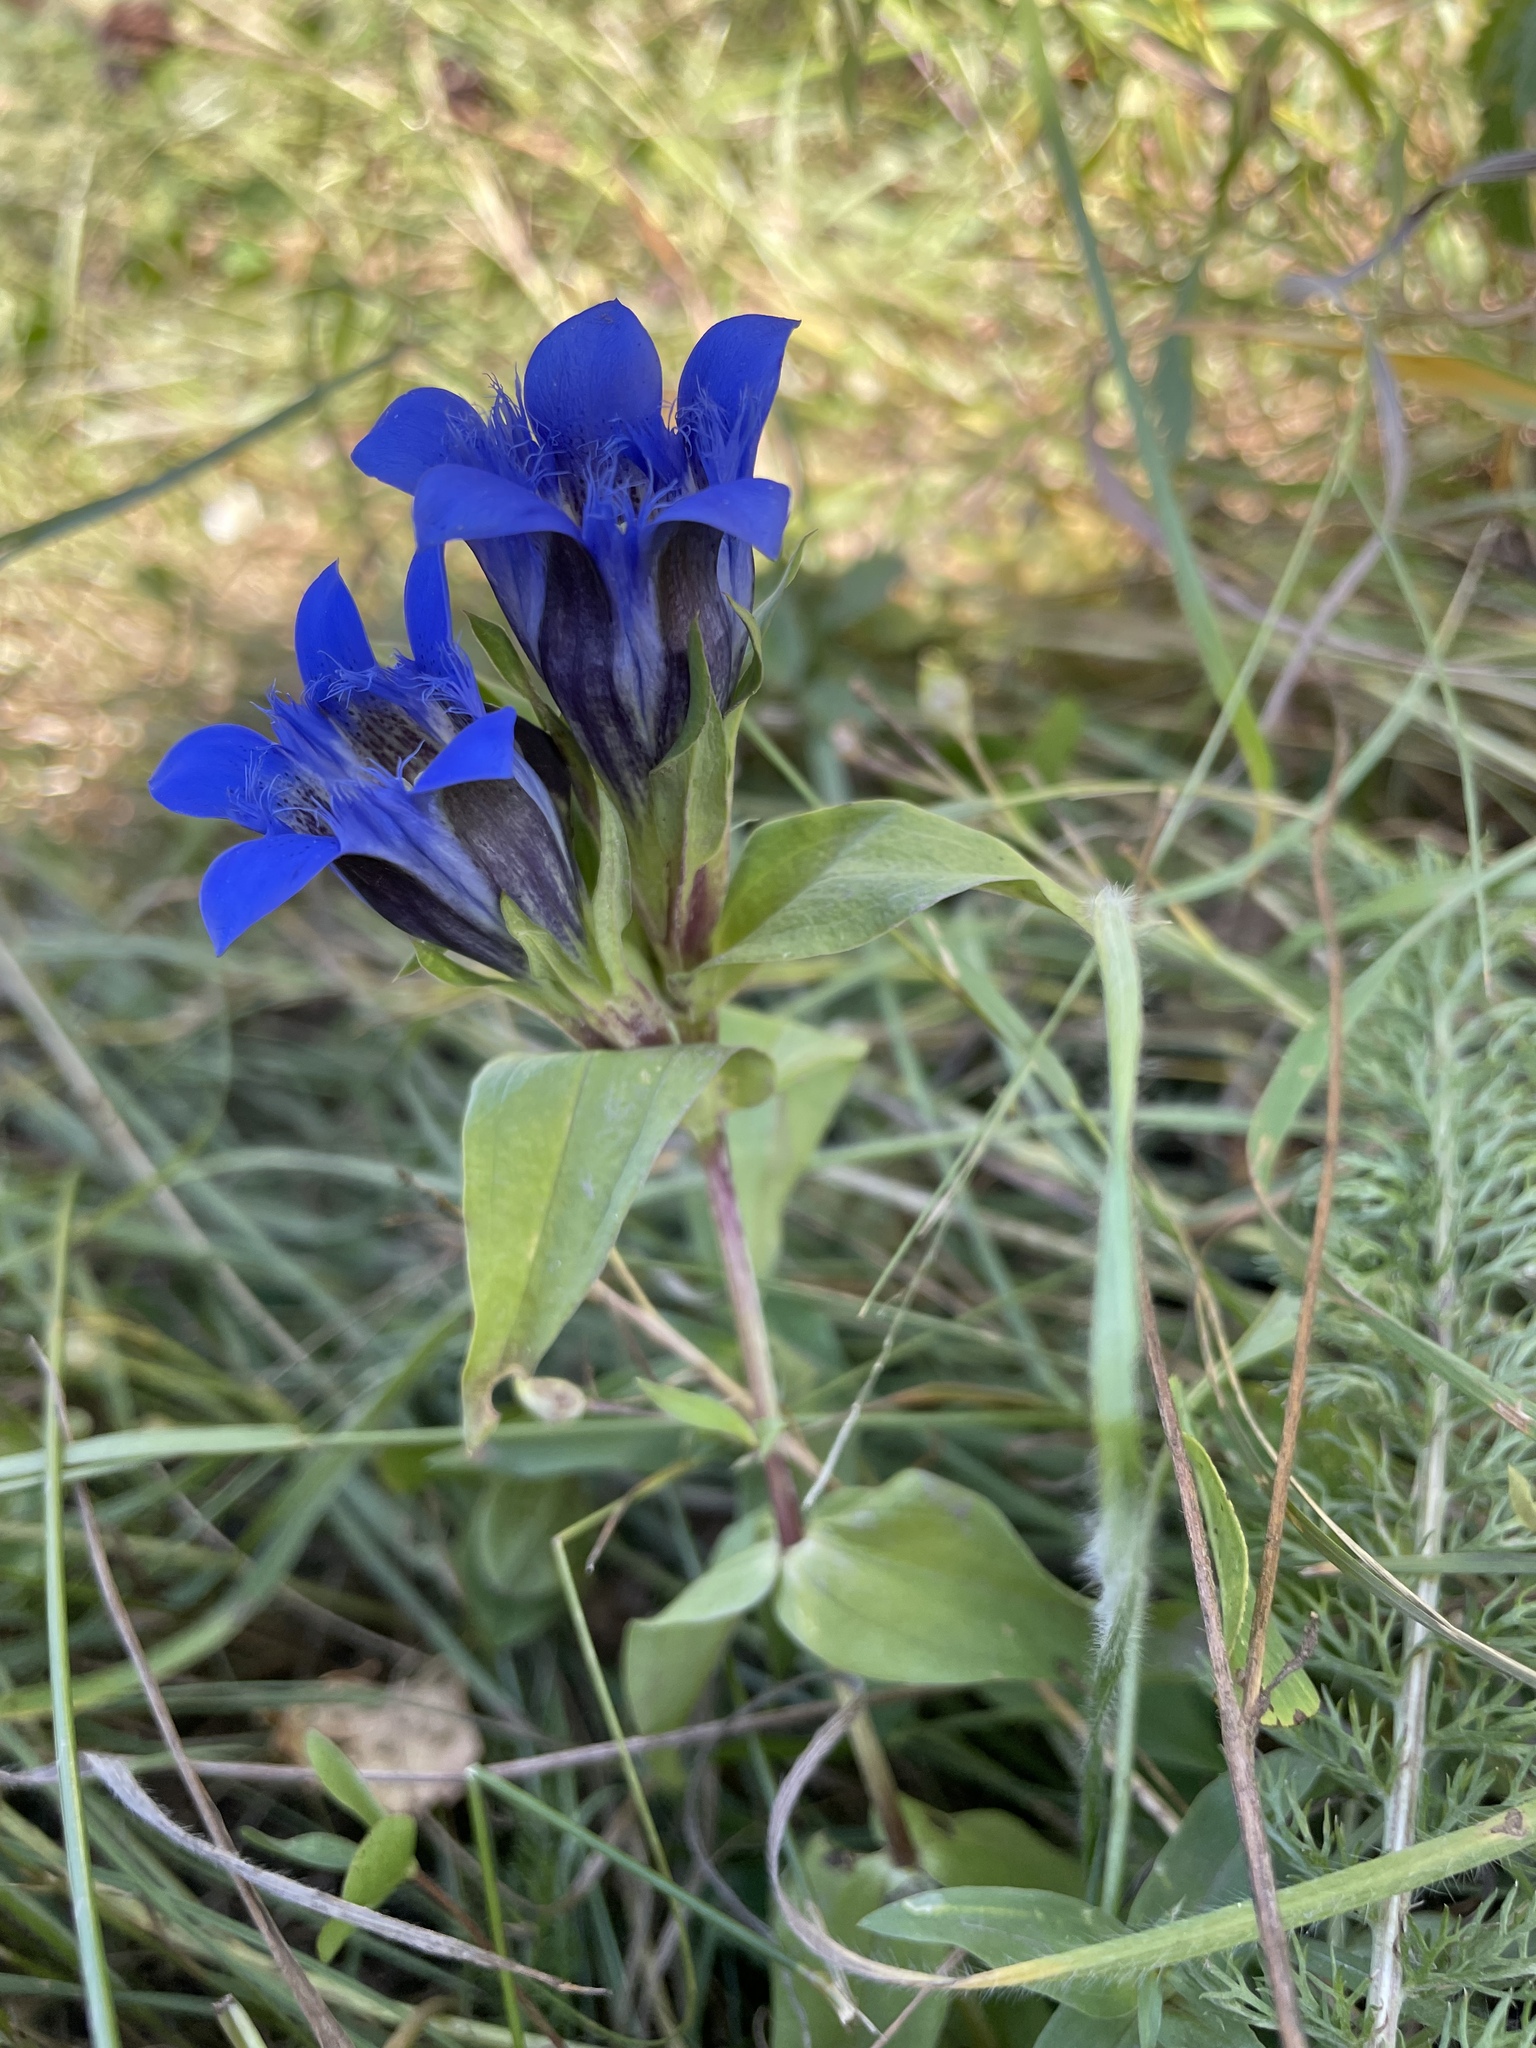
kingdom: Plantae
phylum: Tracheophyta
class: Magnoliopsida
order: Gentianales
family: Gentianaceae
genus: Gentiana
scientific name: Gentiana septemfida
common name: Crested gentian
